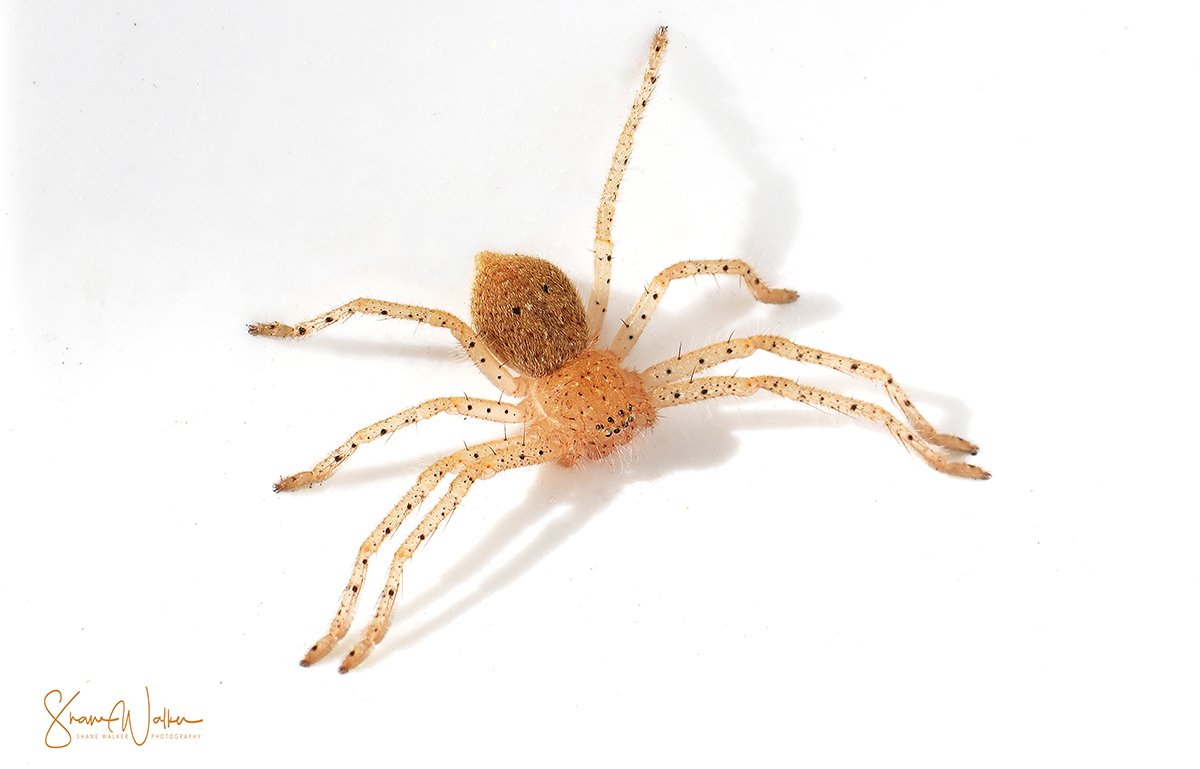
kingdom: Animalia
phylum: Arthropoda
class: Arachnida
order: Araneae
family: Sparassidae
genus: Neosparassus
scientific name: Neosparassus diana
